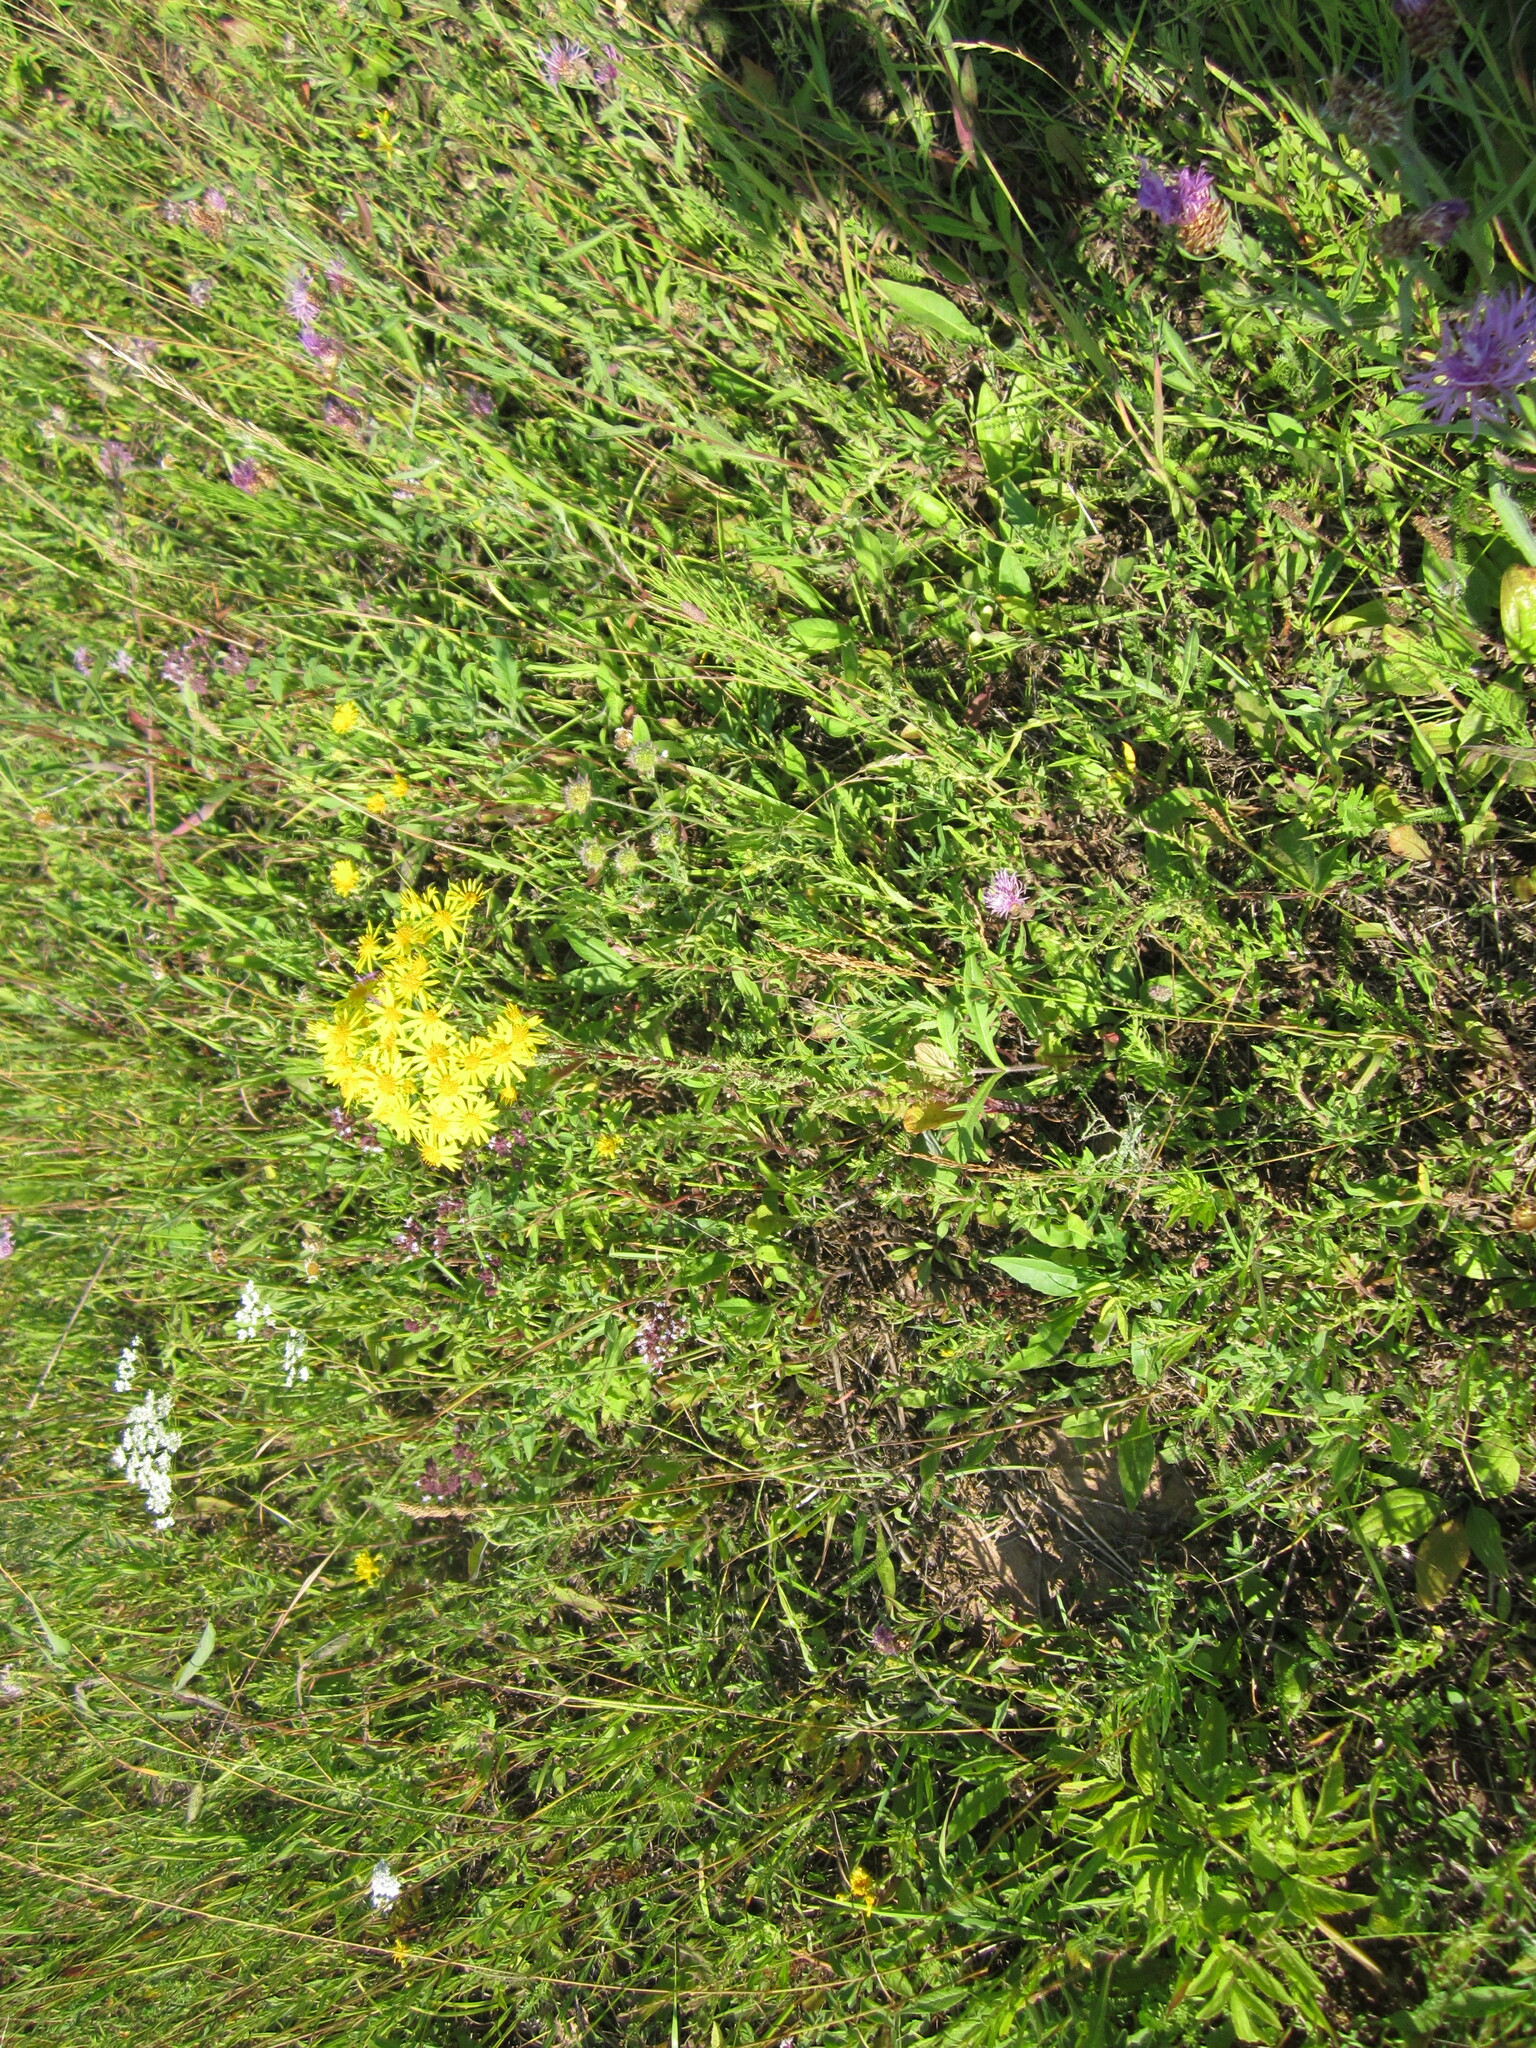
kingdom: Plantae
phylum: Tracheophyta
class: Magnoliopsida
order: Asterales
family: Asteraceae
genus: Jacobaea
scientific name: Jacobaea vulgaris
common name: Stinking willie
